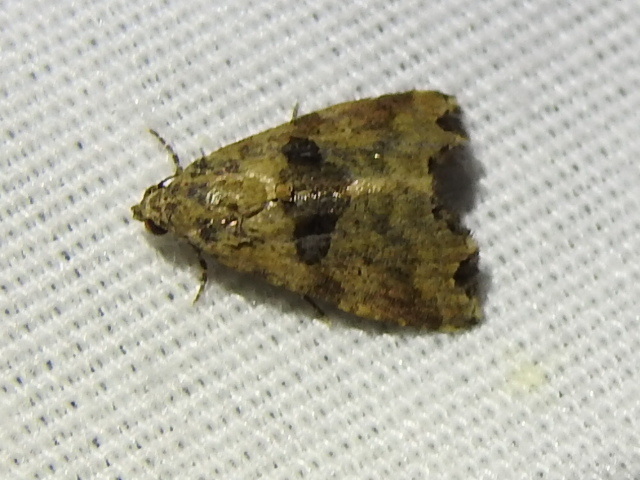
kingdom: Animalia
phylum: Arthropoda
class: Insecta
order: Lepidoptera
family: Noctuidae
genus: Cobubatha
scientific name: Cobubatha metaspilaris
